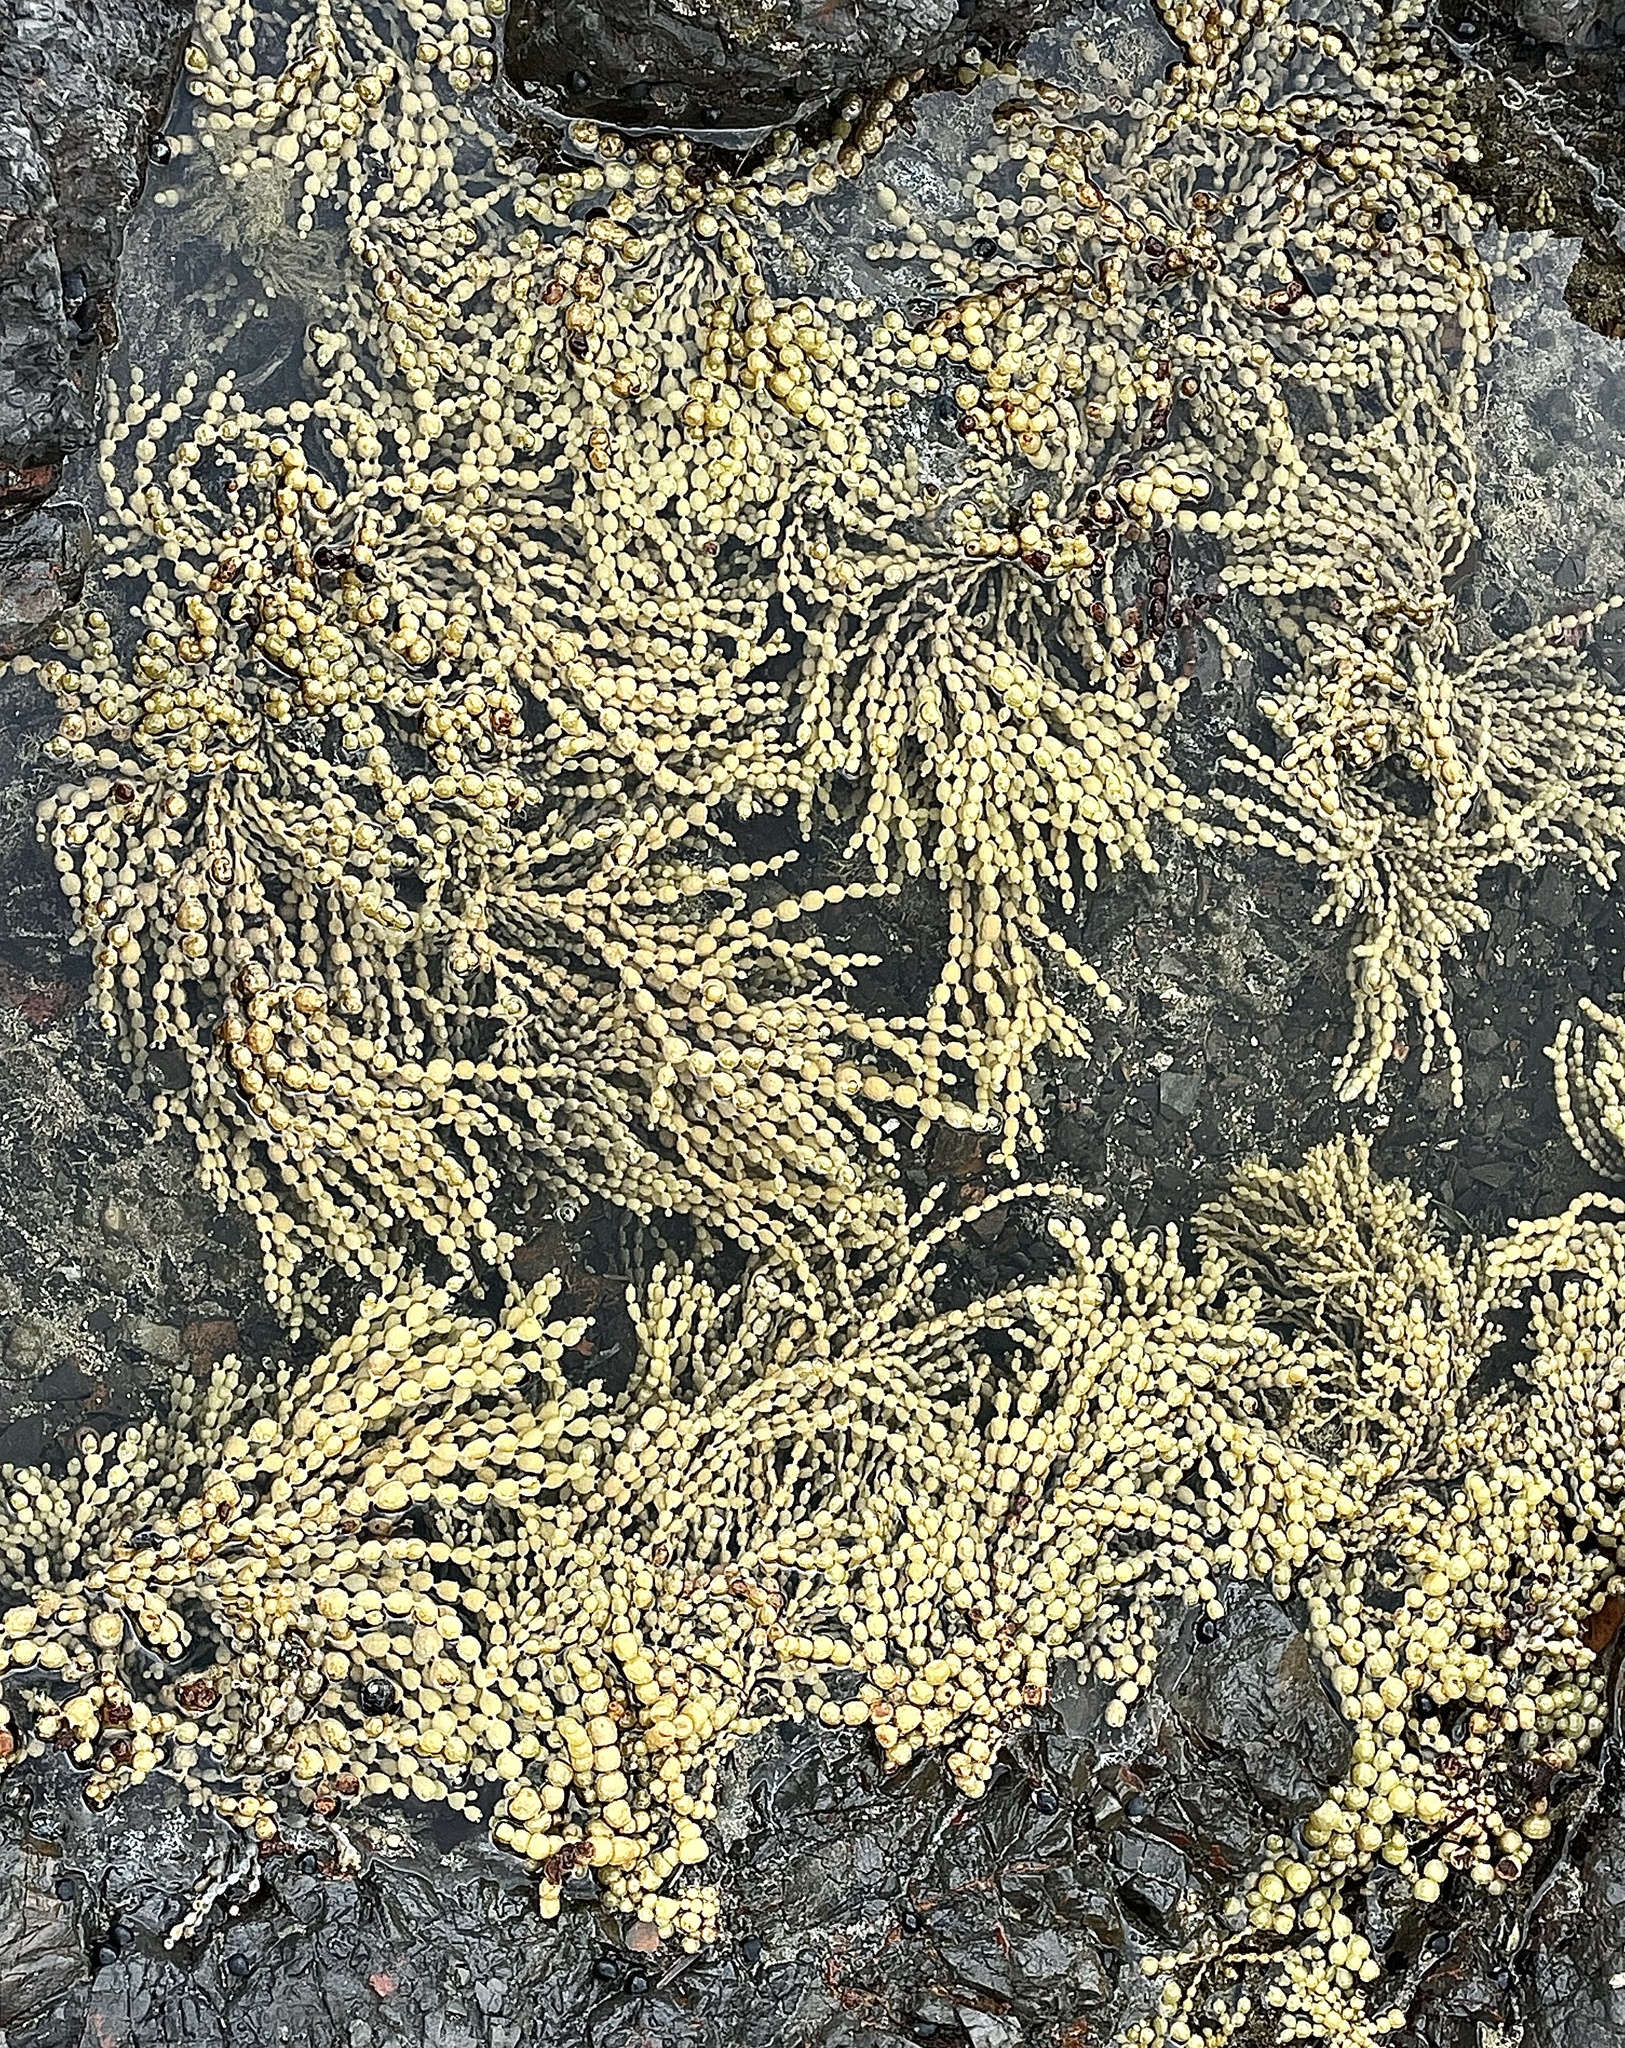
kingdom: Chromista
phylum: Ochrophyta
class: Phaeophyceae
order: Fucales
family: Hormosiraceae
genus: Hormosira
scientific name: Hormosira banksii
